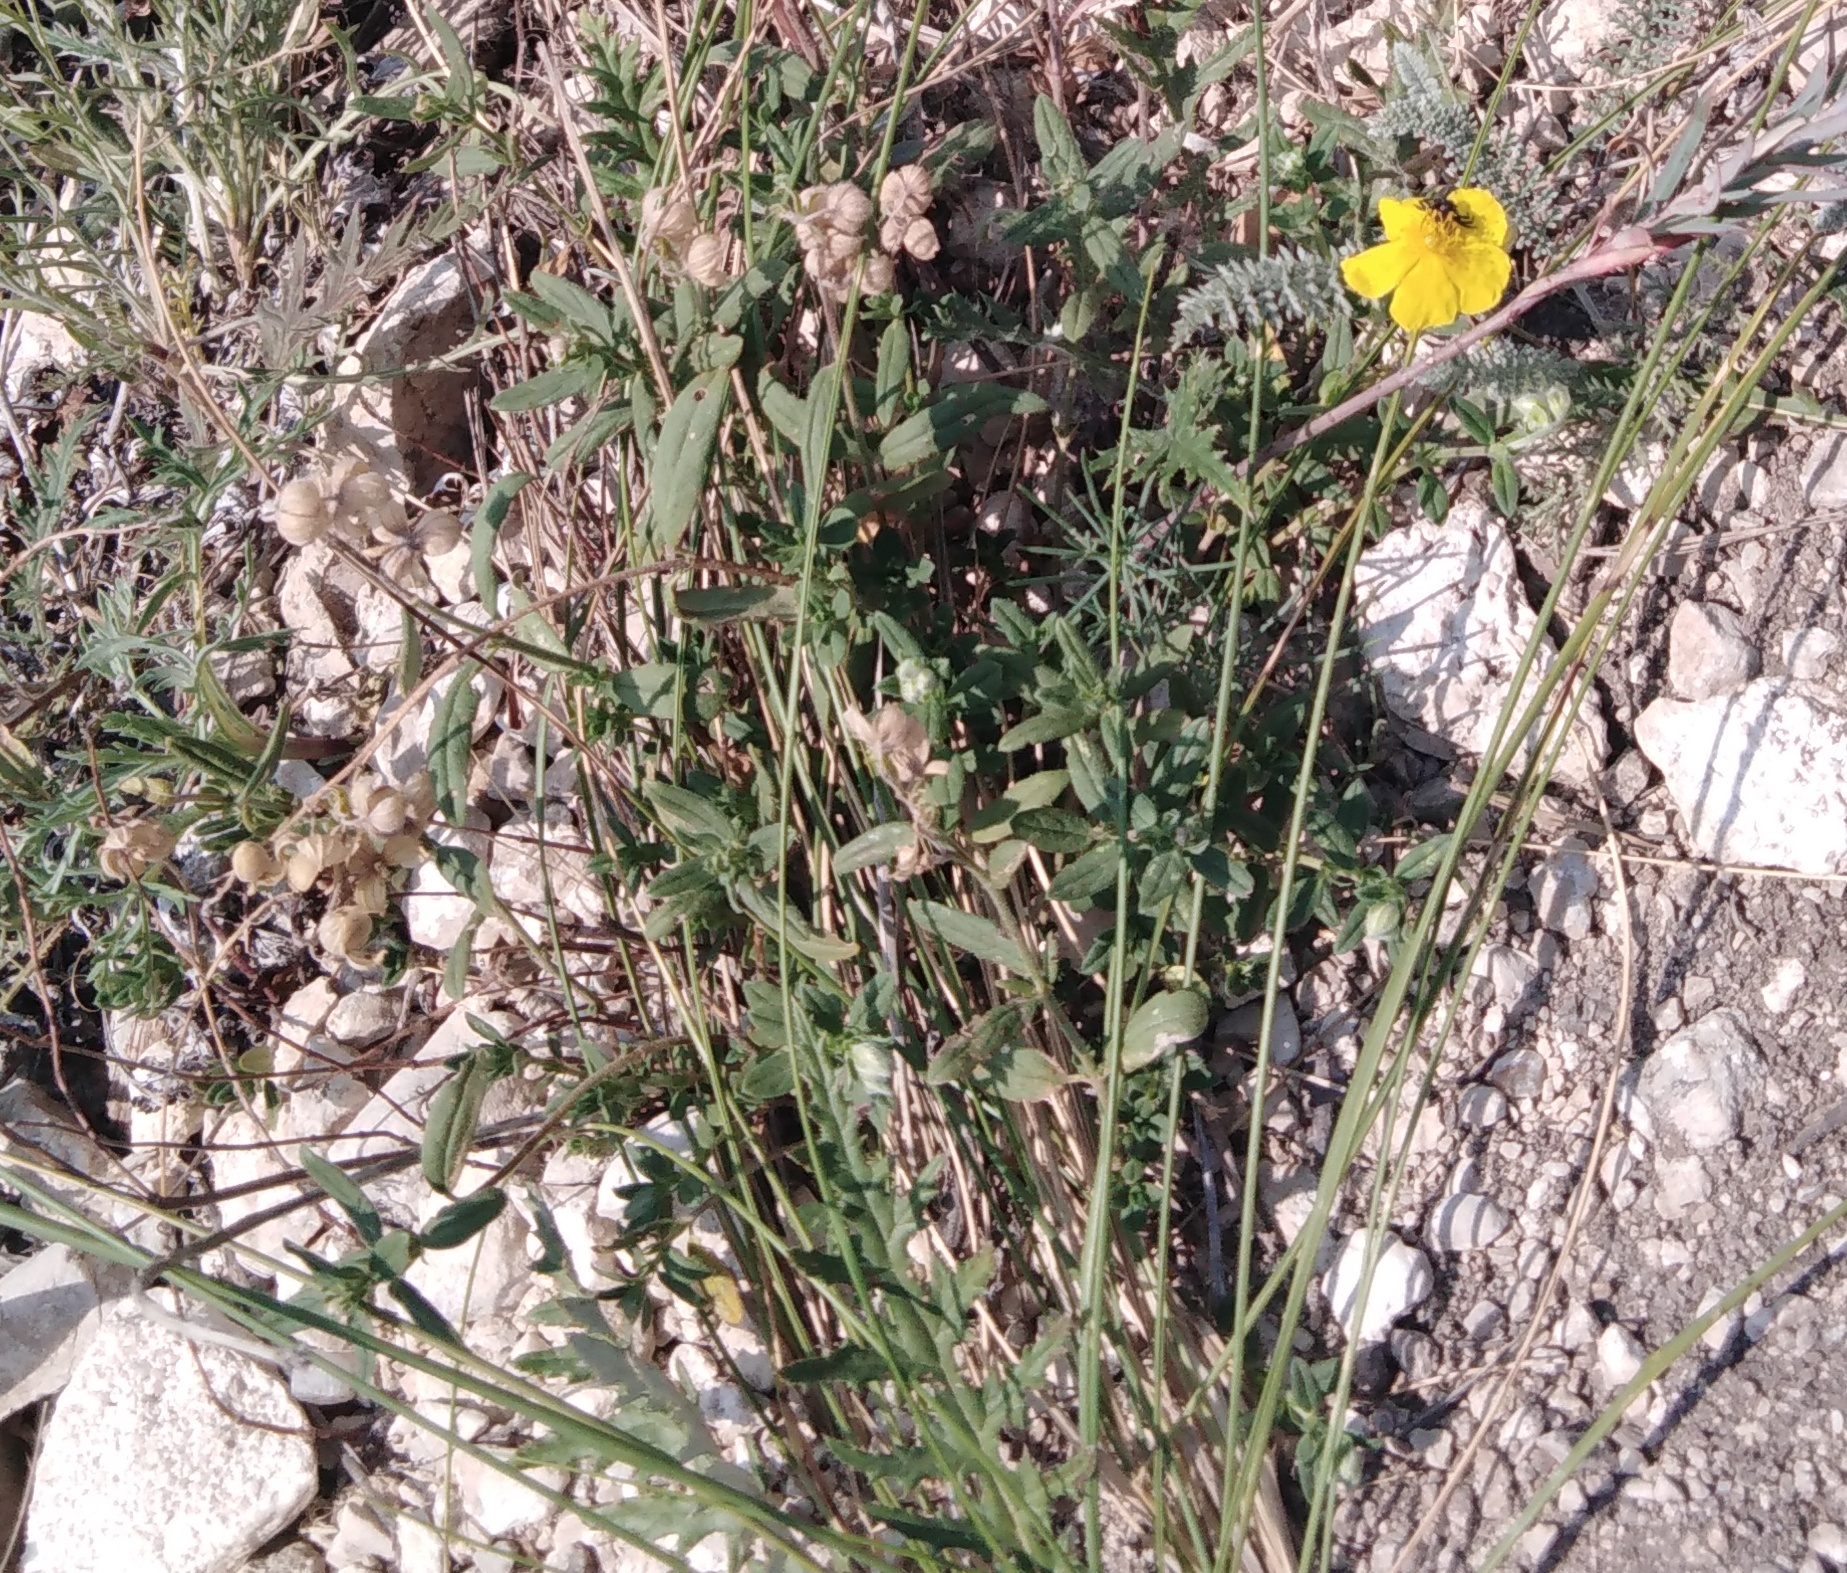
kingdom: Plantae
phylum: Tracheophyta
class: Magnoliopsida
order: Malvales
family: Cistaceae
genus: Helianthemum
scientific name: Helianthemum nummularium
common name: Common rock-rose
